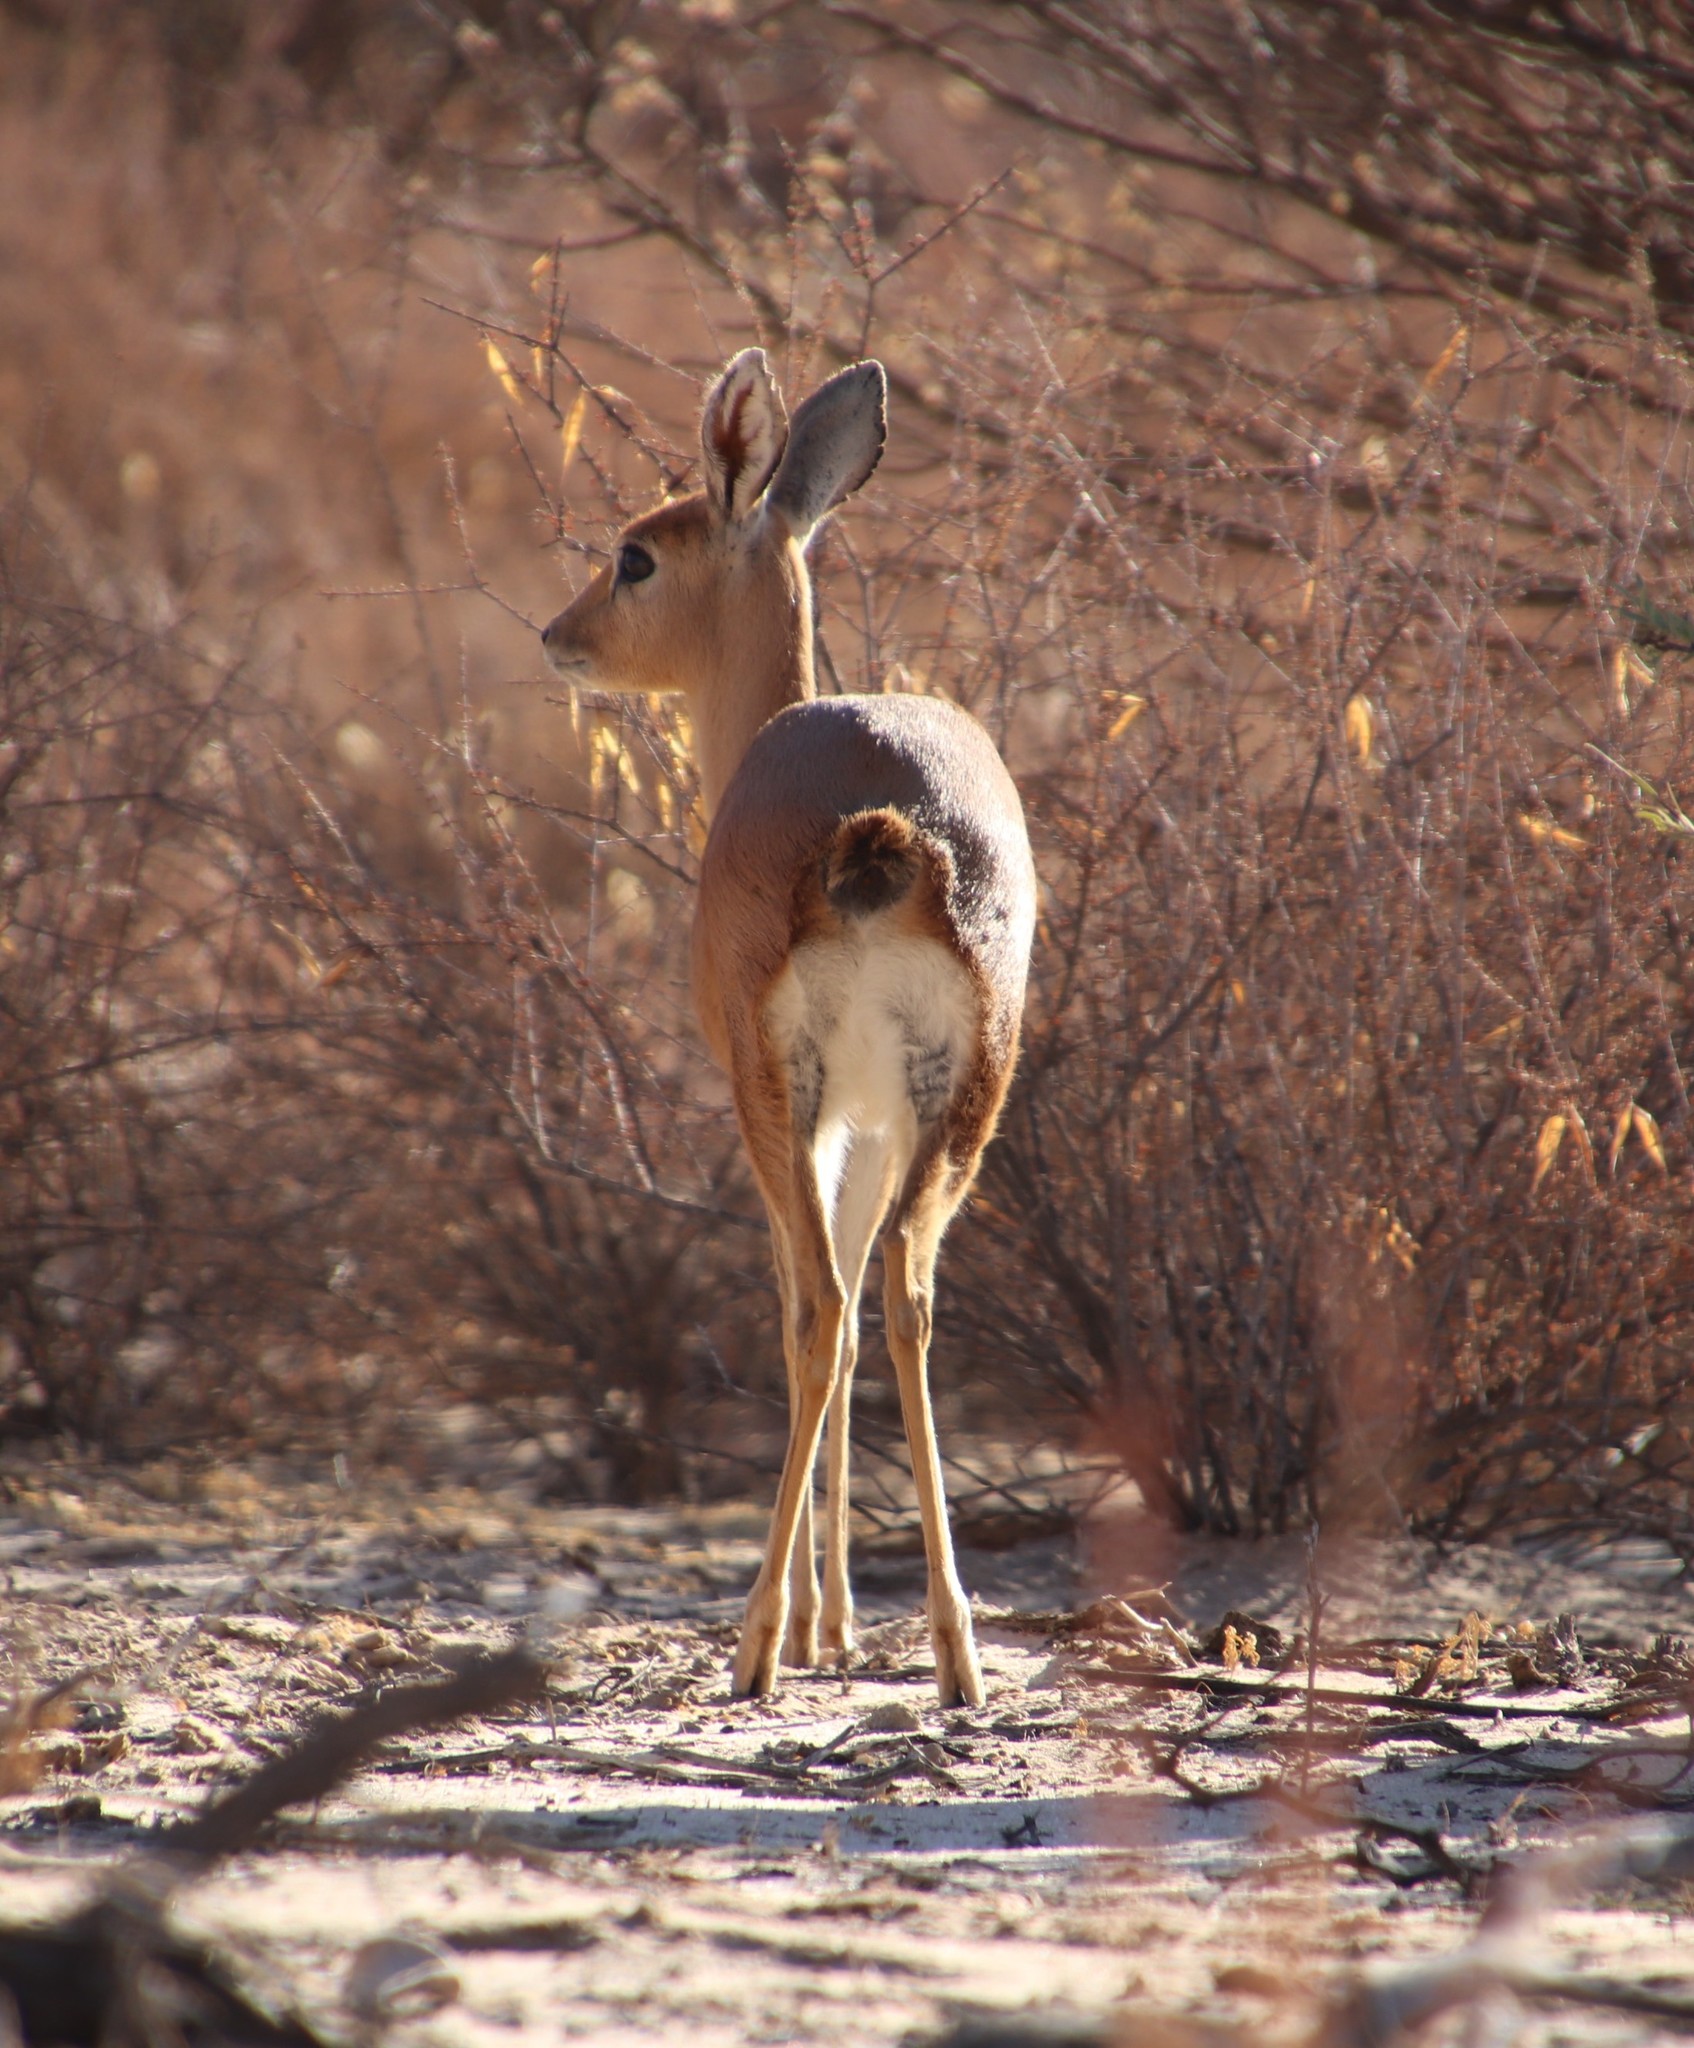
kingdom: Animalia
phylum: Chordata
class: Mammalia
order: Artiodactyla
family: Bovidae
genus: Raphicerus
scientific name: Raphicerus campestris
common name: Steenbok
